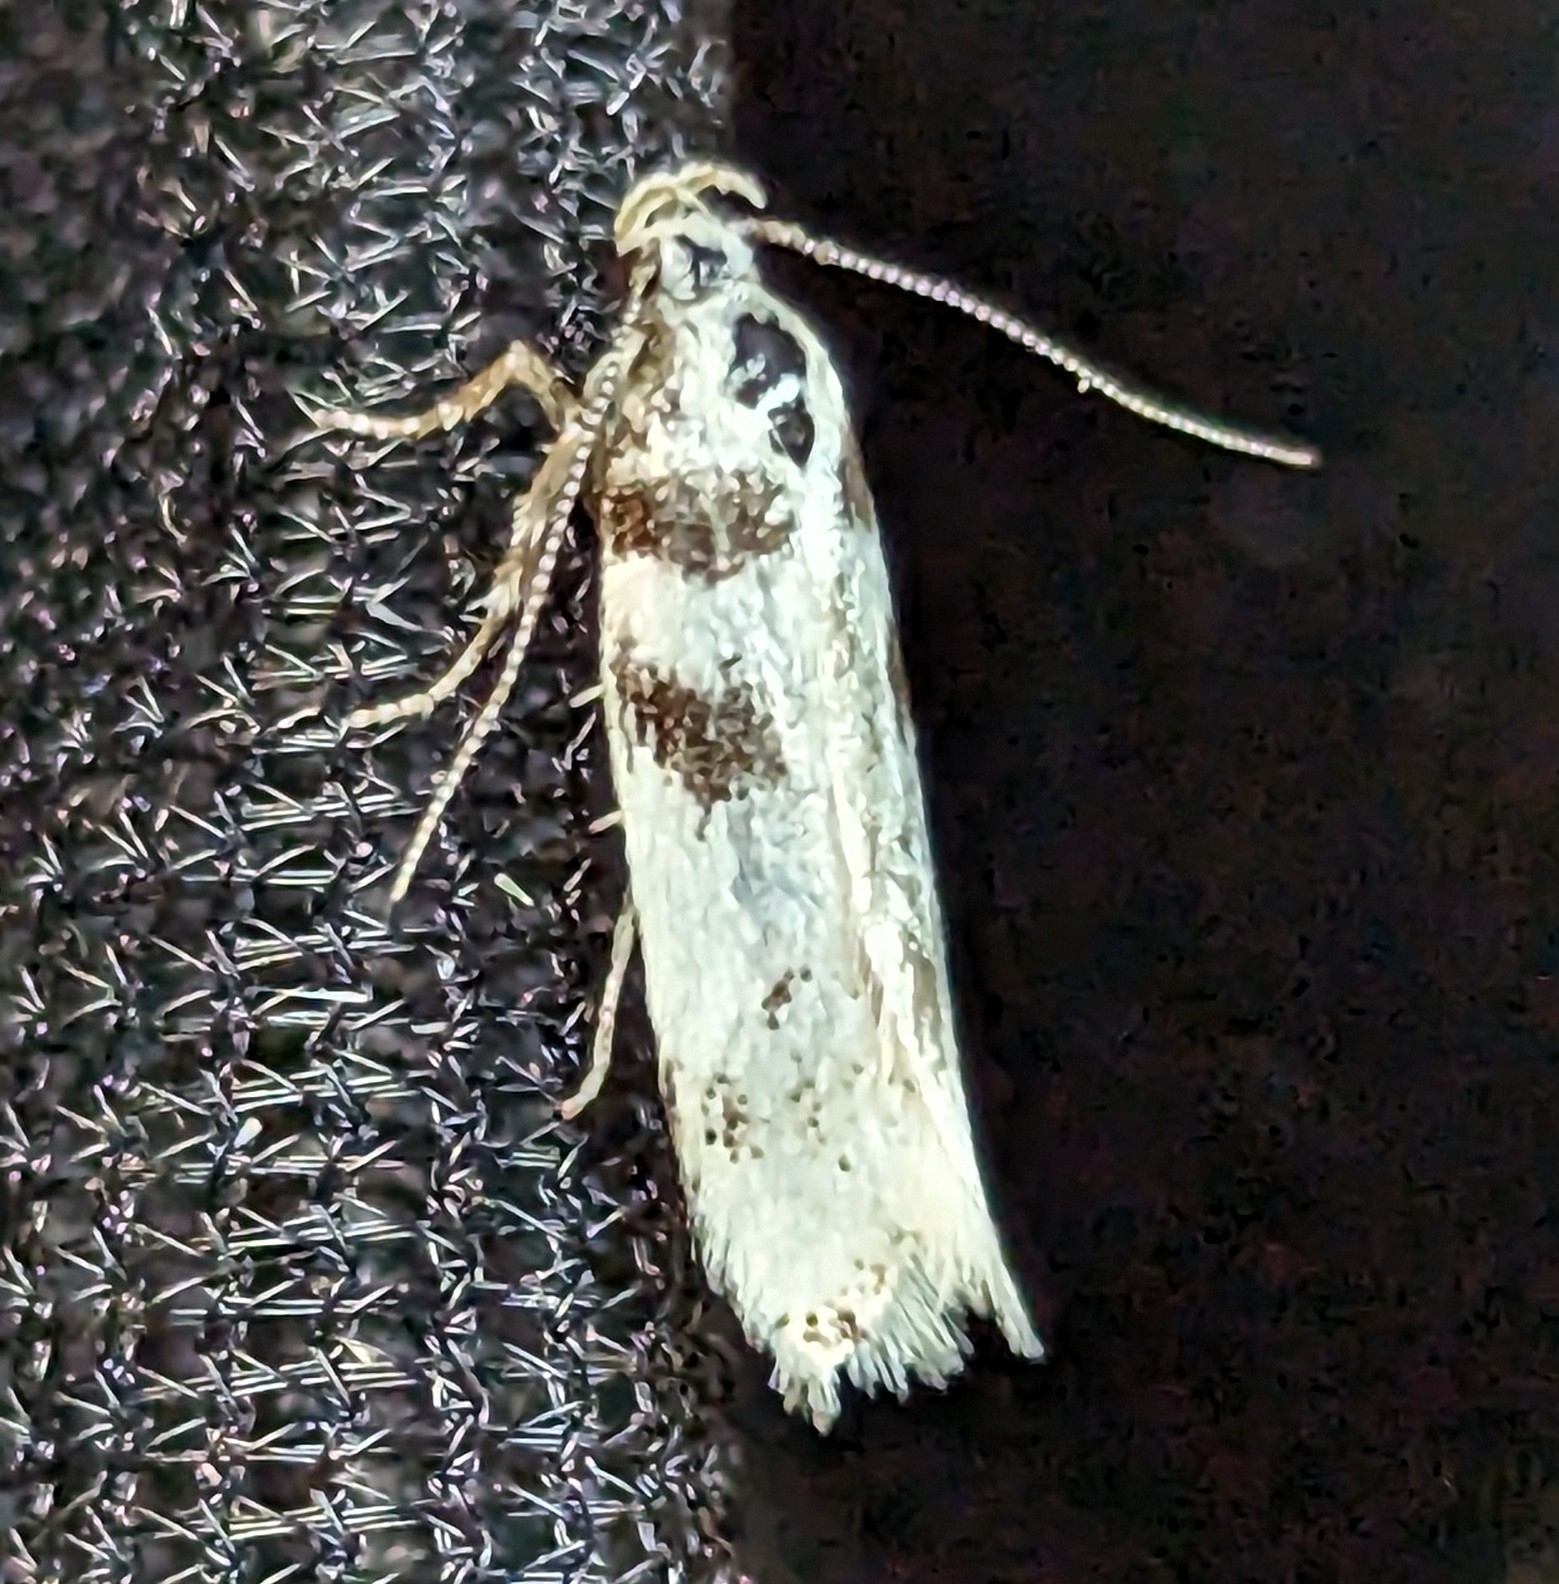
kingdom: Animalia
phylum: Arthropoda
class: Insecta
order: Lepidoptera
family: Gelechiidae
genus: Chionodes
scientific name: Chionodes lictor
